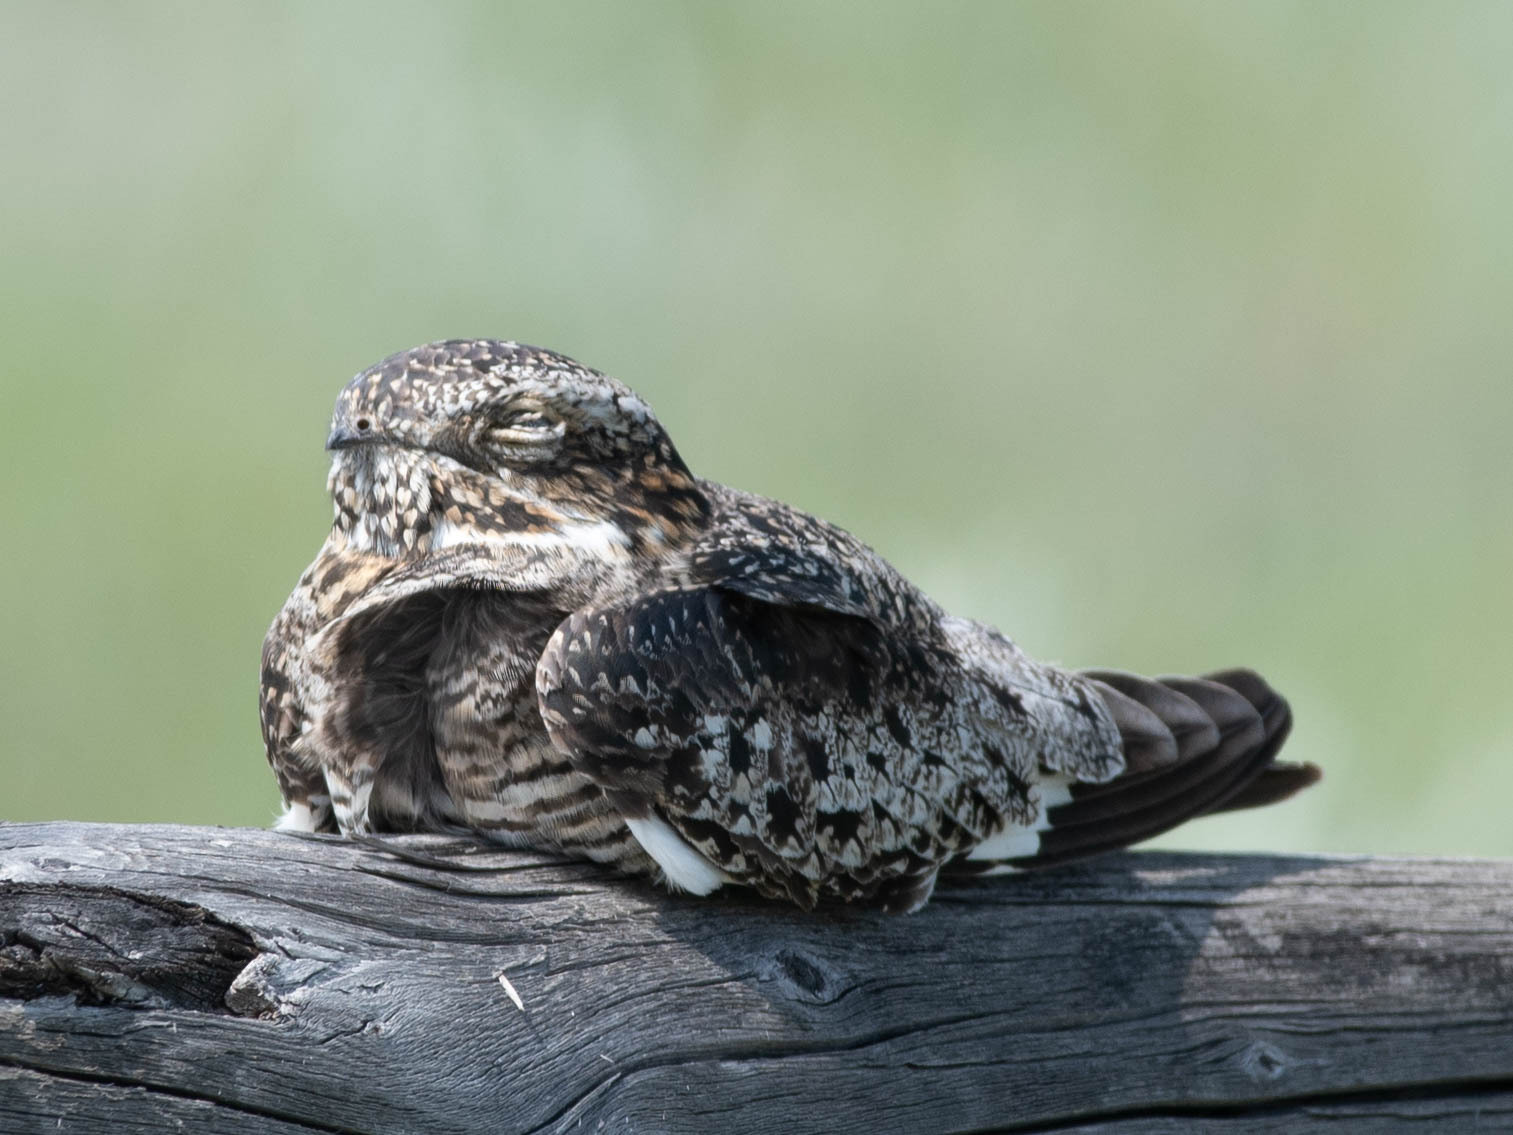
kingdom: Animalia
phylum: Chordata
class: Aves
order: Caprimulgiformes
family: Caprimulgidae
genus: Chordeiles
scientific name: Chordeiles minor
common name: Common nighthawk
